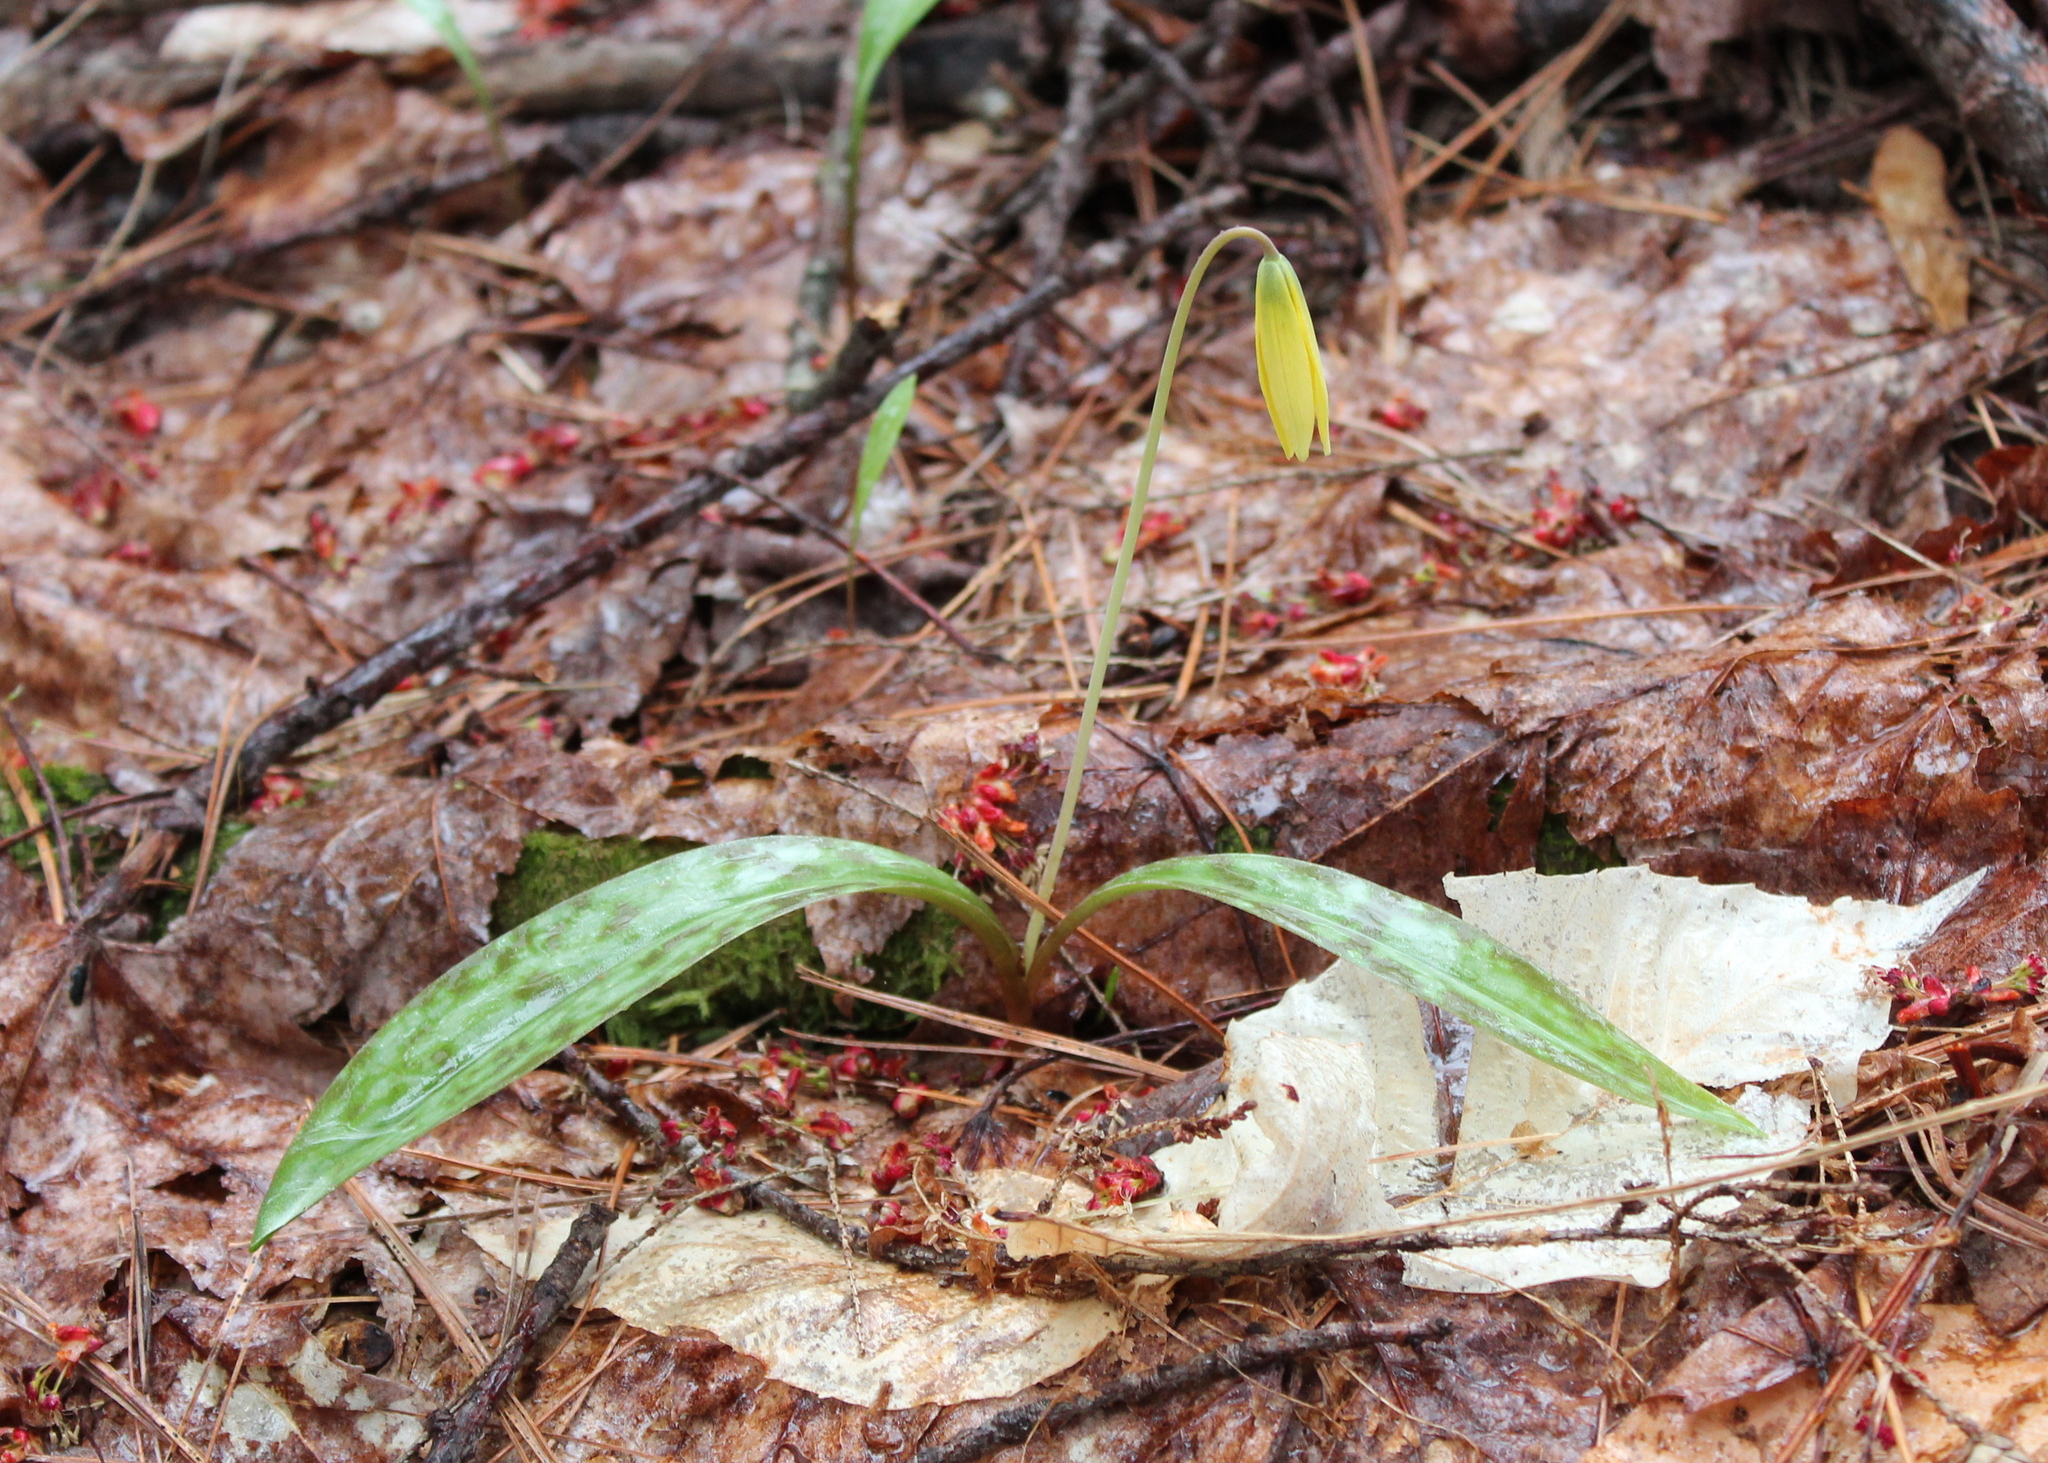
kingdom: Plantae
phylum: Tracheophyta
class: Liliopsida
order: Liliales
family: Liliaceae
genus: Erythronium
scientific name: Erythronium americanum
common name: Yellow adder's-tongue
